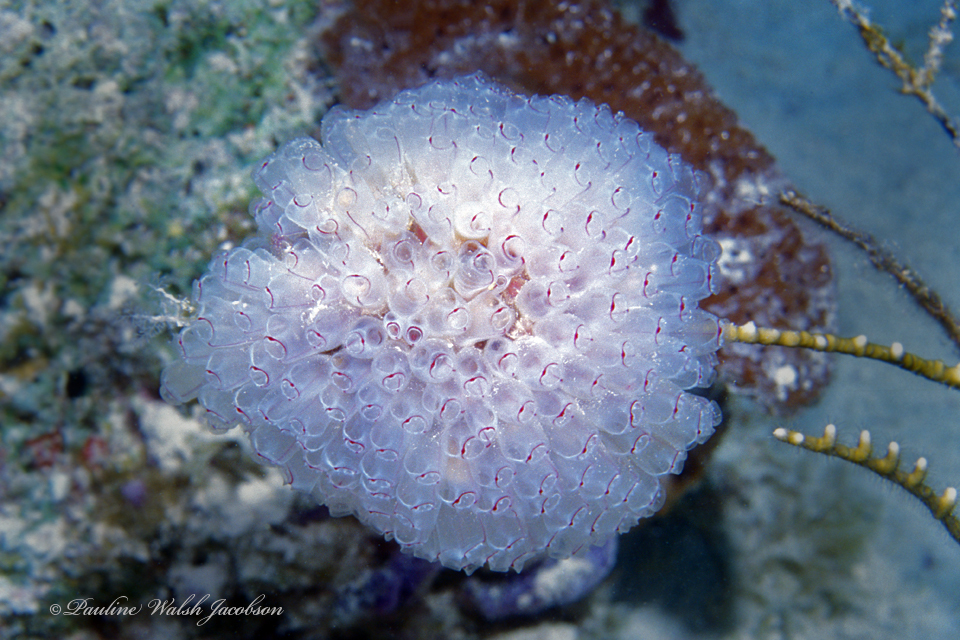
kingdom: Animalia
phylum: Chordata
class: Ascidiacea
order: Aplousobranchia
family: Clavelinidae
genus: Clavelina
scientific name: Clavelina picta
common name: Painted tunicate
